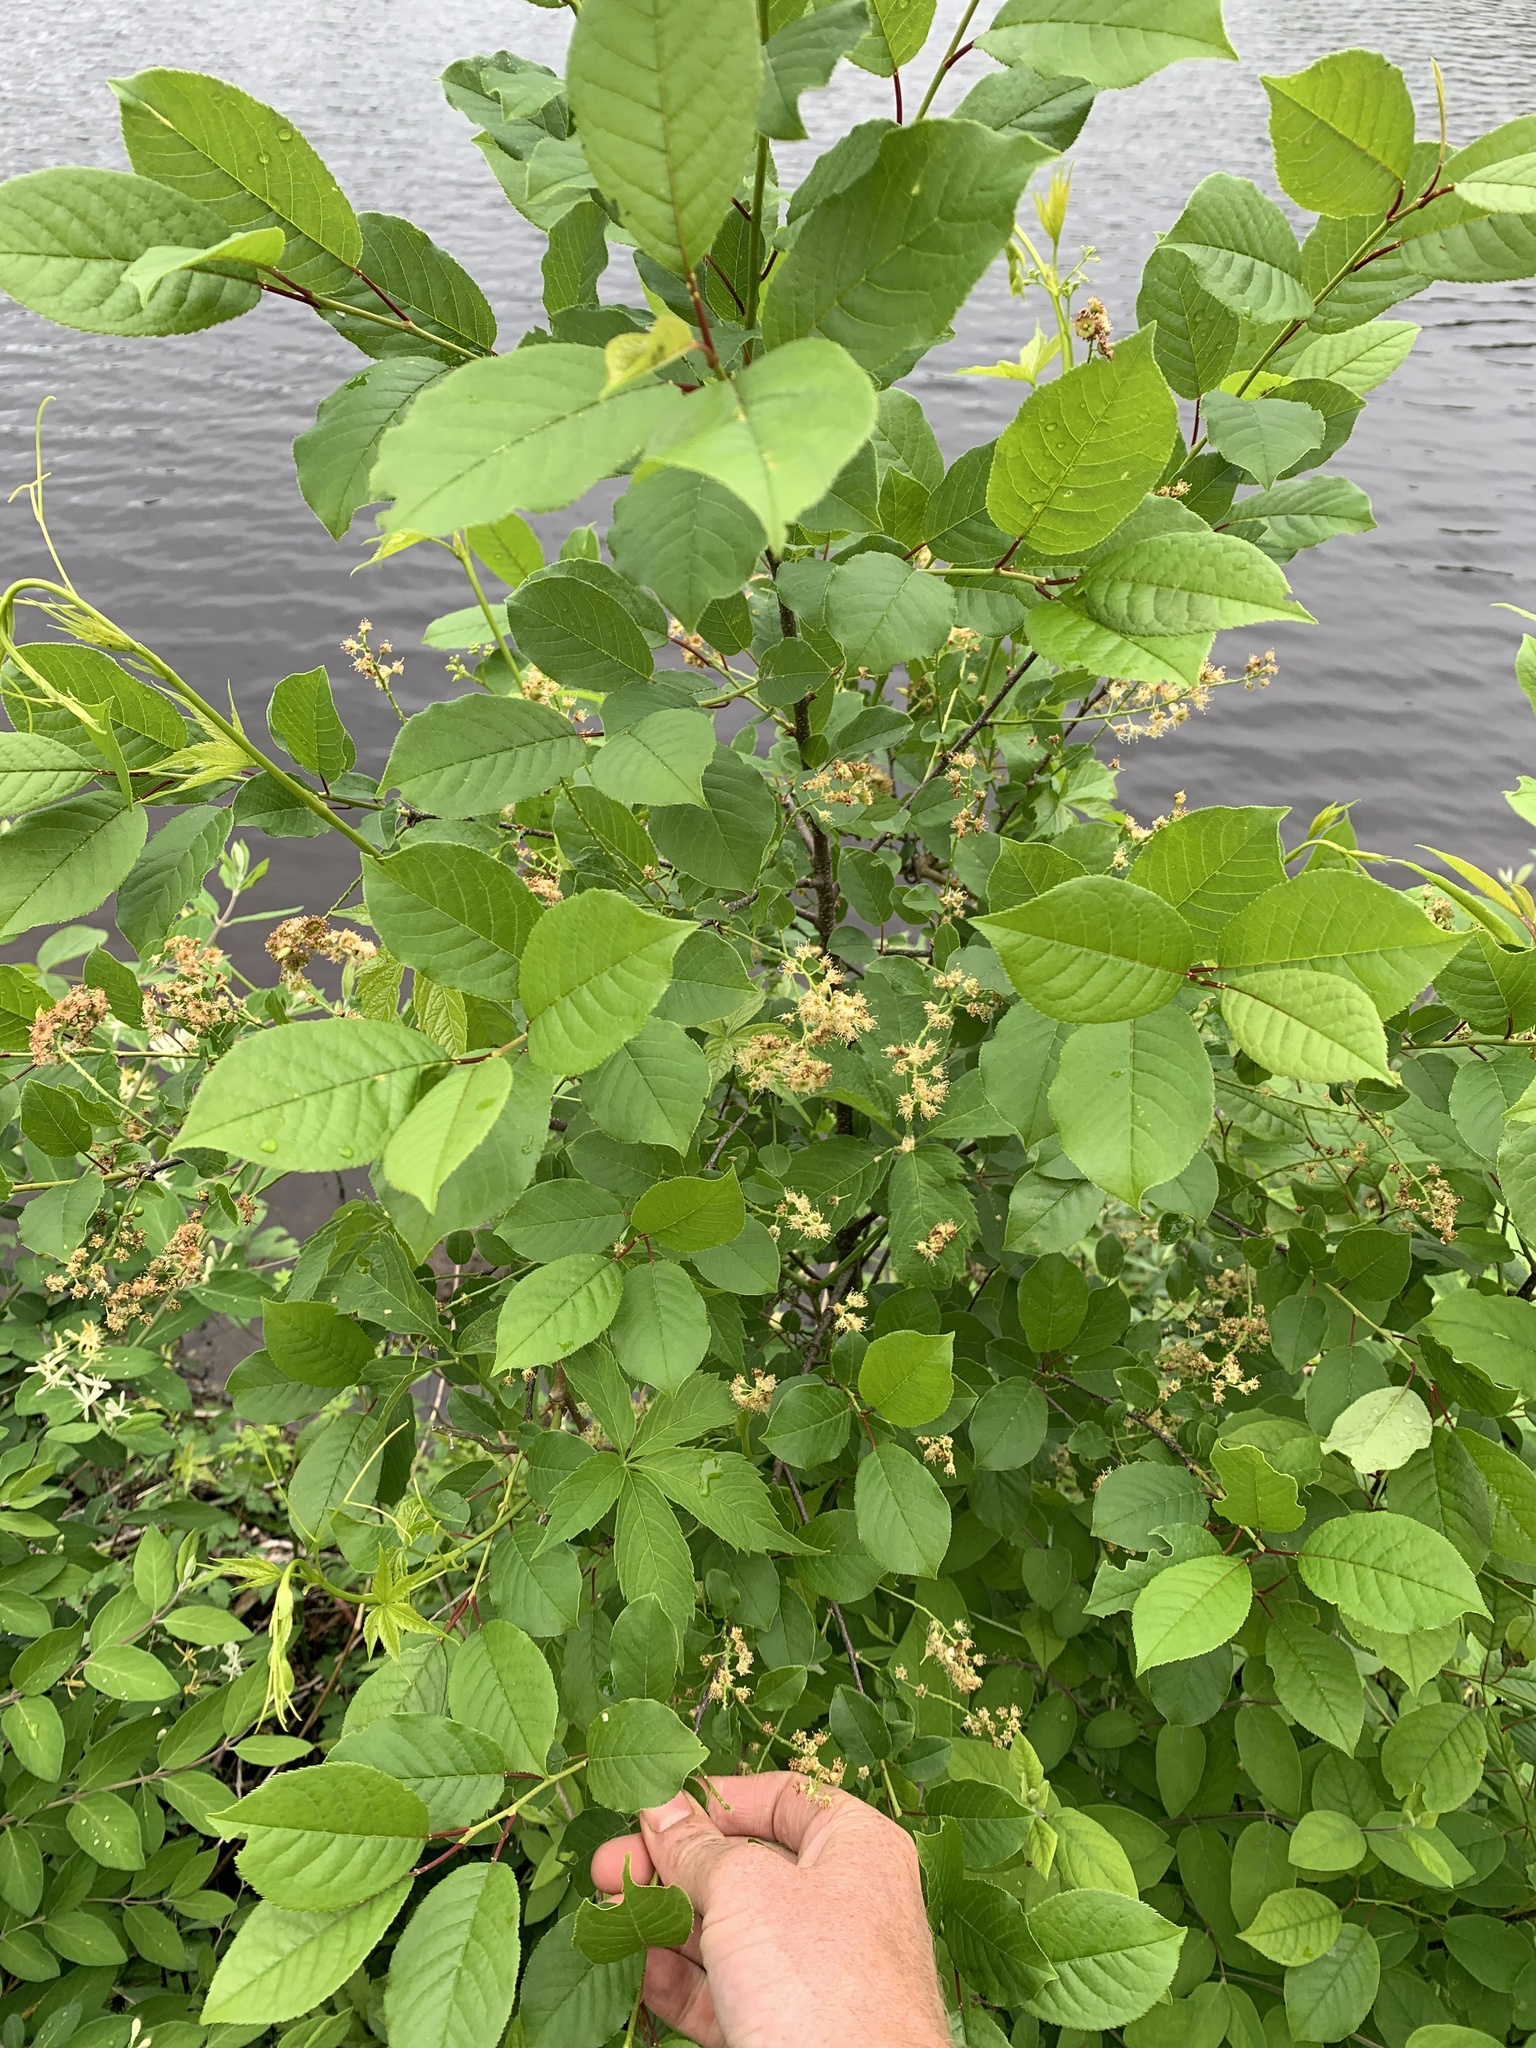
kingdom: Plantae
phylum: Tracheophyta
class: Magnoliopsida
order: Rosales
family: Rosaceae
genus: Prunus
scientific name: Prunus virginiana
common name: Chokecherry
